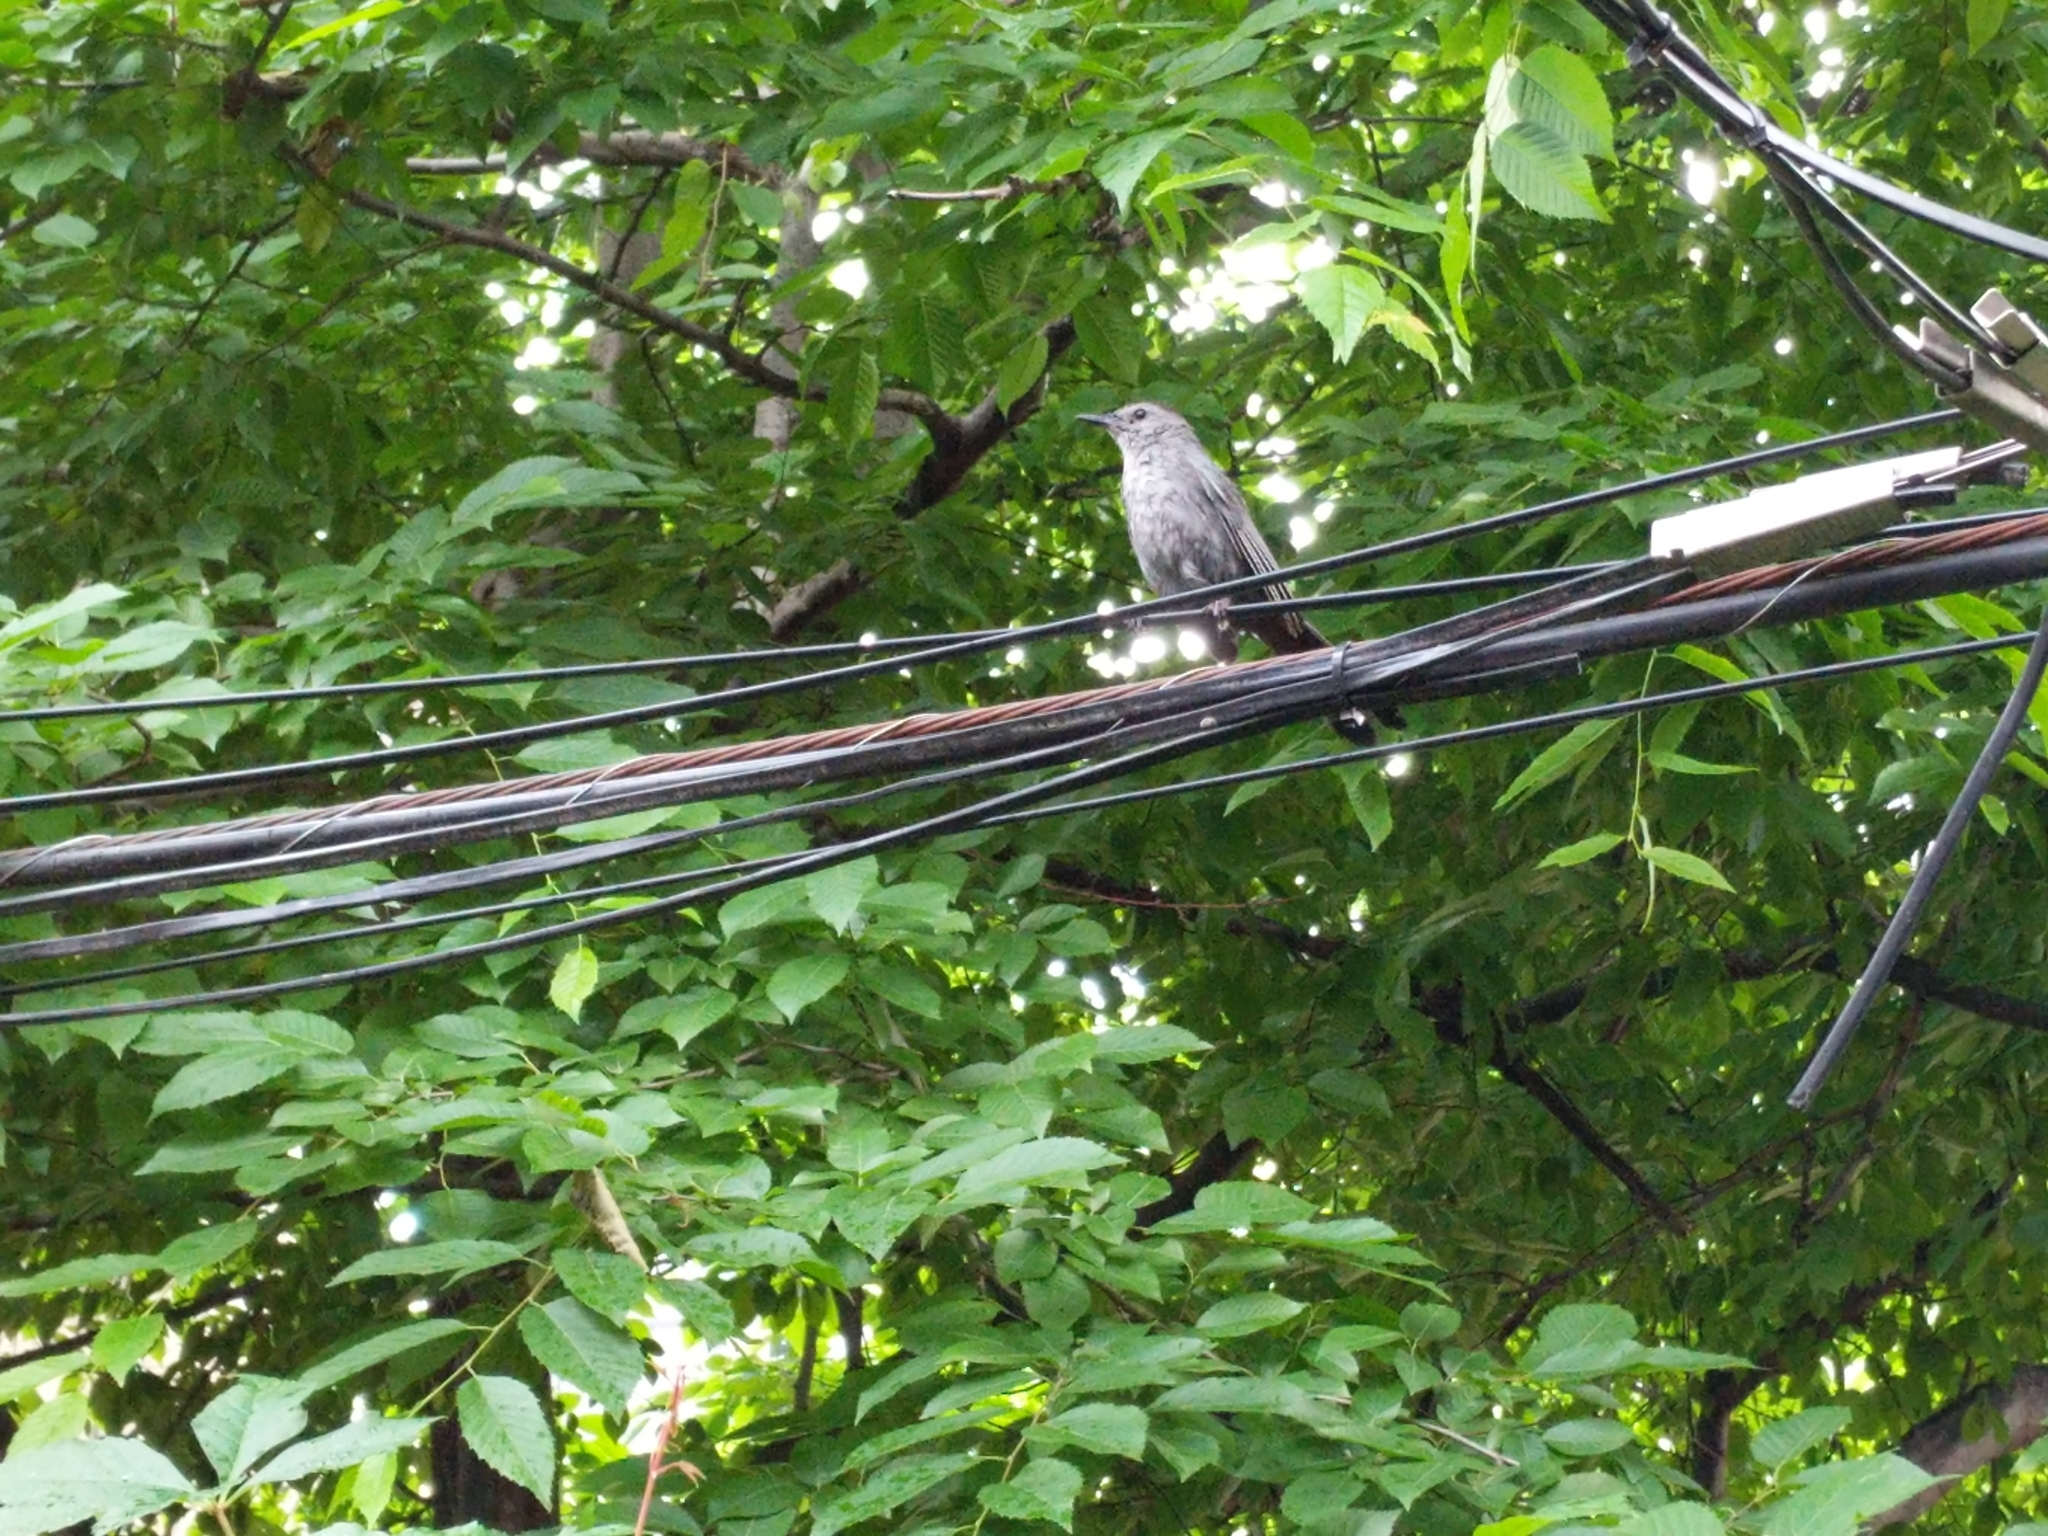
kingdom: Animalia
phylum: Chordata
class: Aves
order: Passeriformes
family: Mimidae
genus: Dumetella
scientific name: Dumetella carolinensis
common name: Gray catbird
